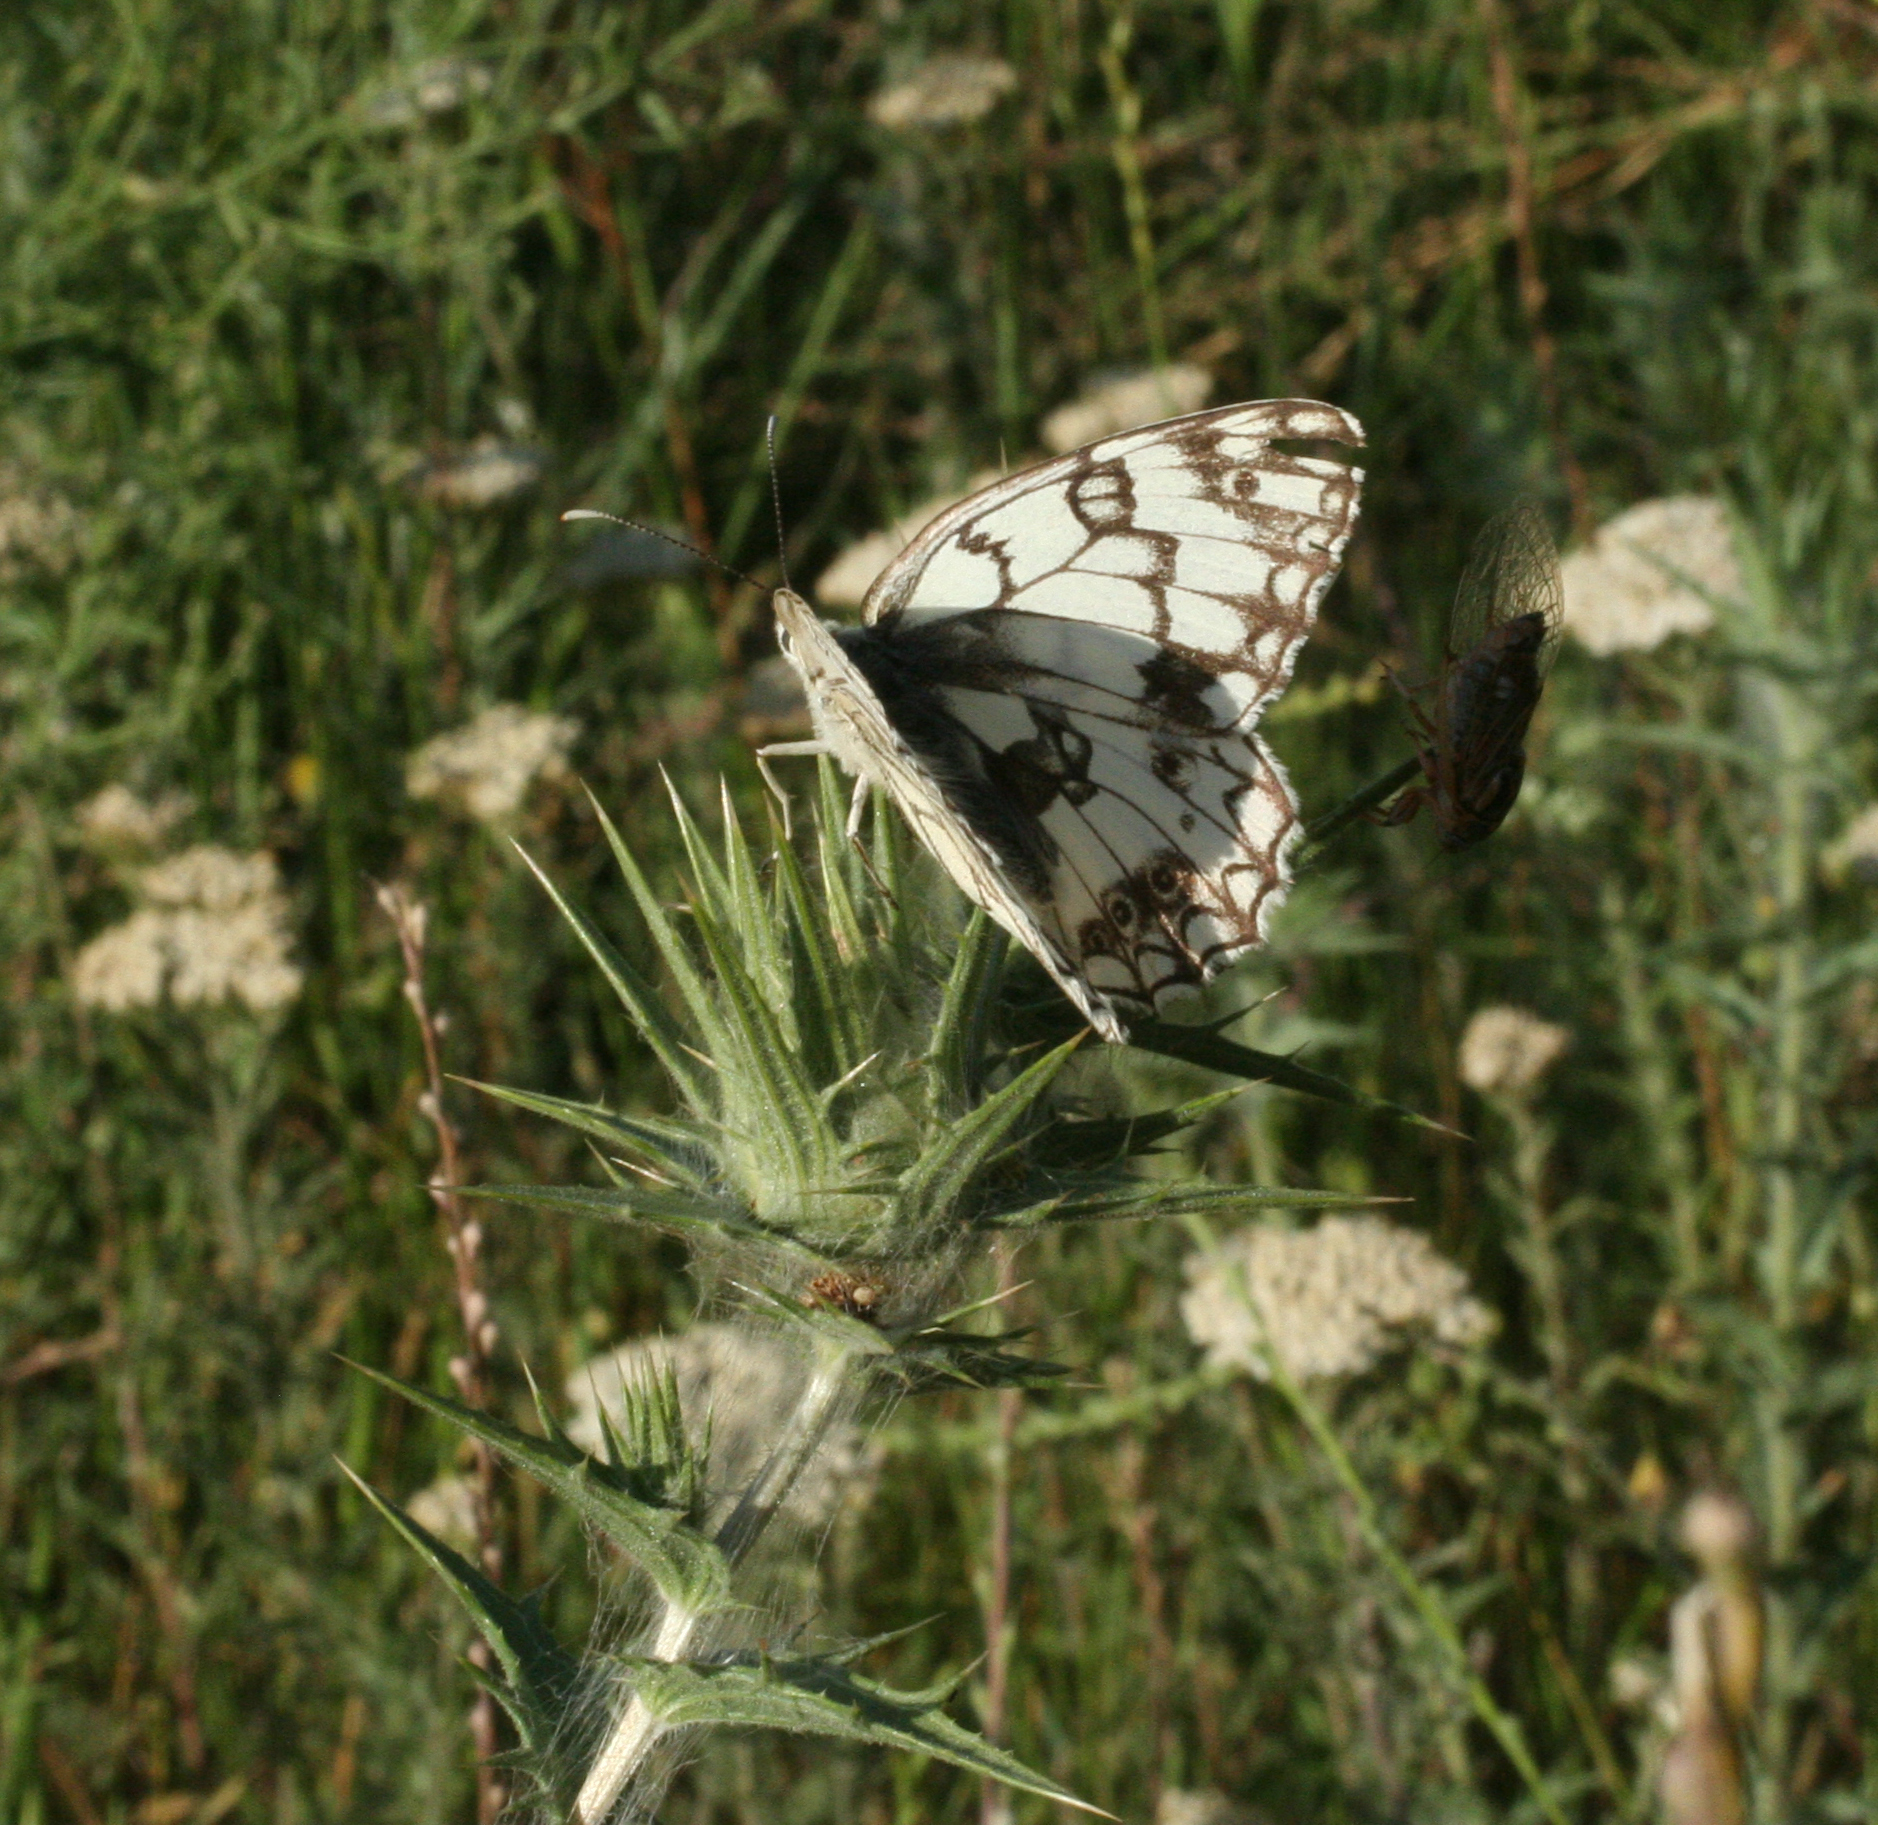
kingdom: Animalia
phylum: Arthropoda
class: Insecta
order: Lepidoptera
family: Nymphalidae
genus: Melanargia
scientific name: Melanargia japygia
